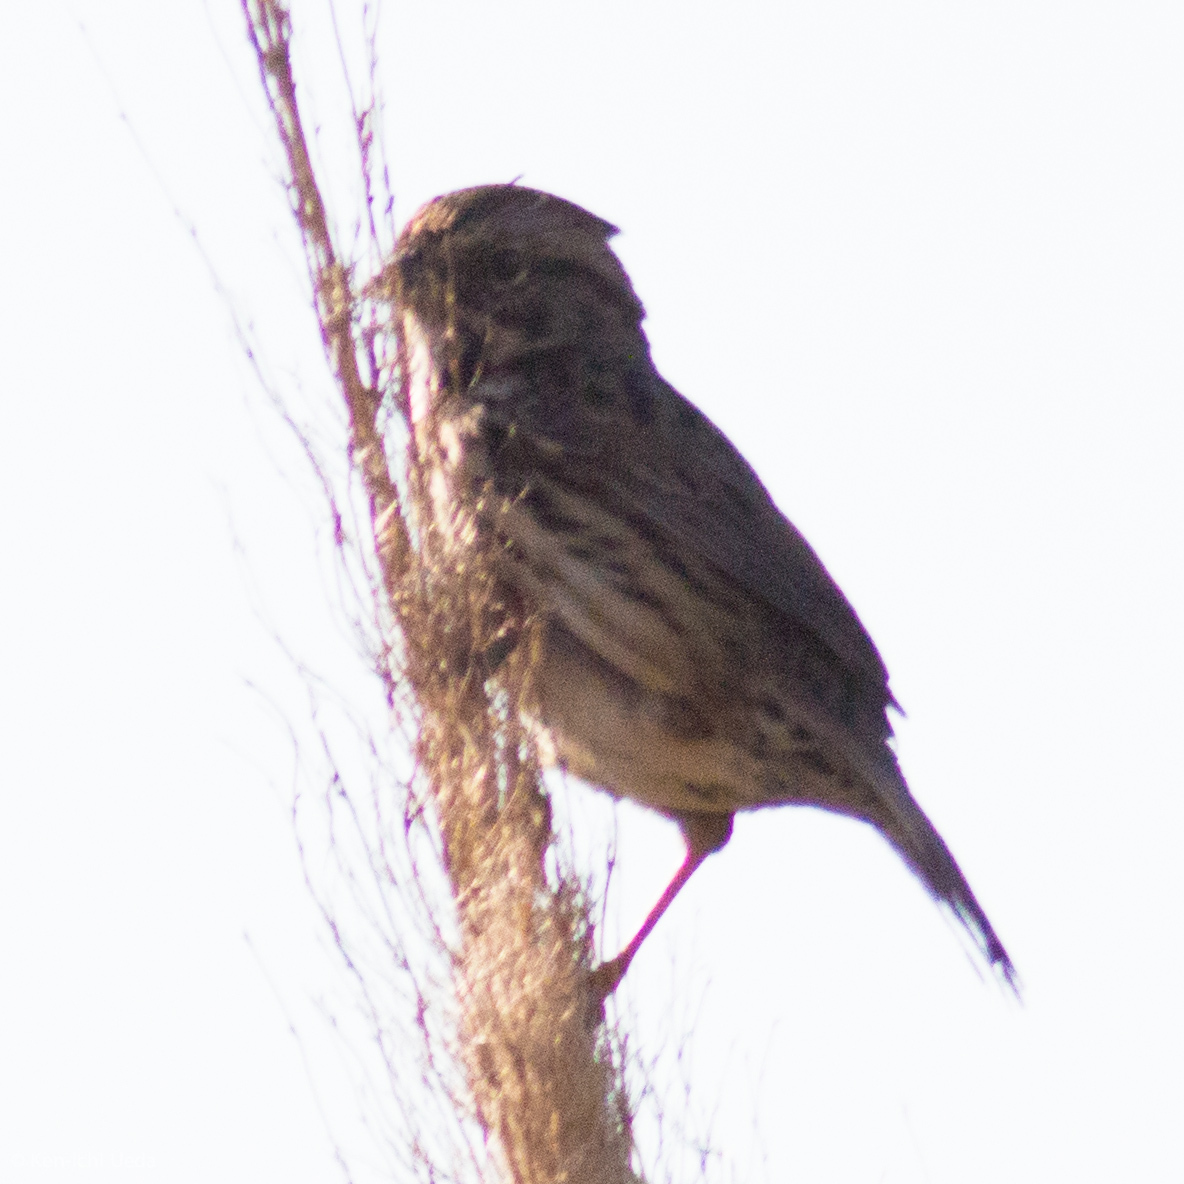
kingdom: Animalia
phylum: Chordata
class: Aves
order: Passeriformes
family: Passerellidae
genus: Melospiza
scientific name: Melospiza melodia
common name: Song sparrow
